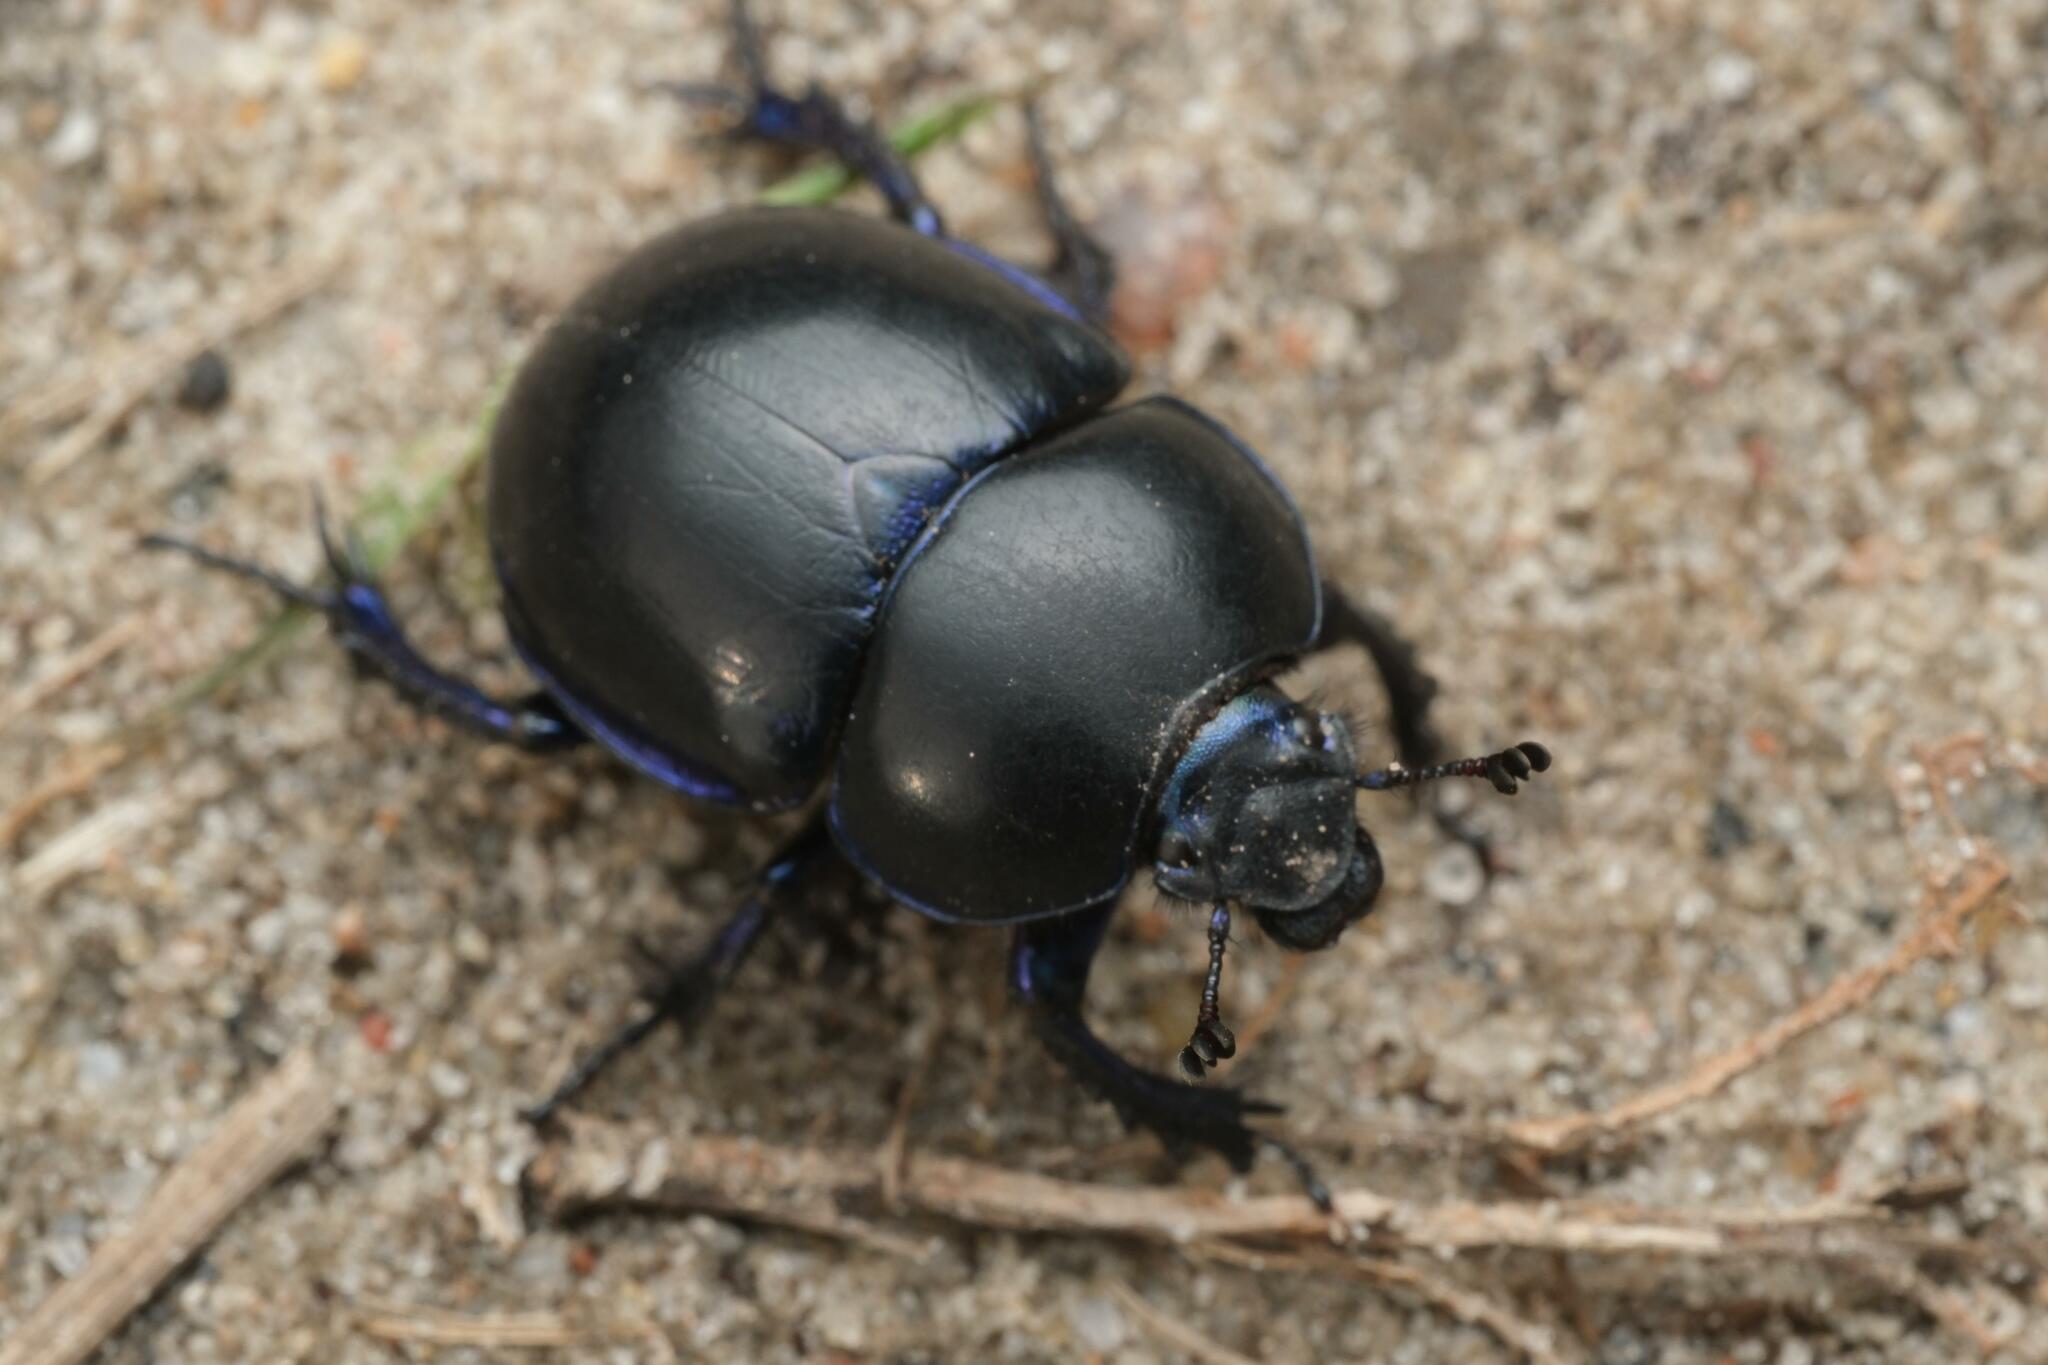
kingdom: Animalia
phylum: Arthropoda
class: Insecta
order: Coleoptera
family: Geotrupidae
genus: Trypocopris
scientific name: Trypocopris vernalis
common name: Spring dumbledor
